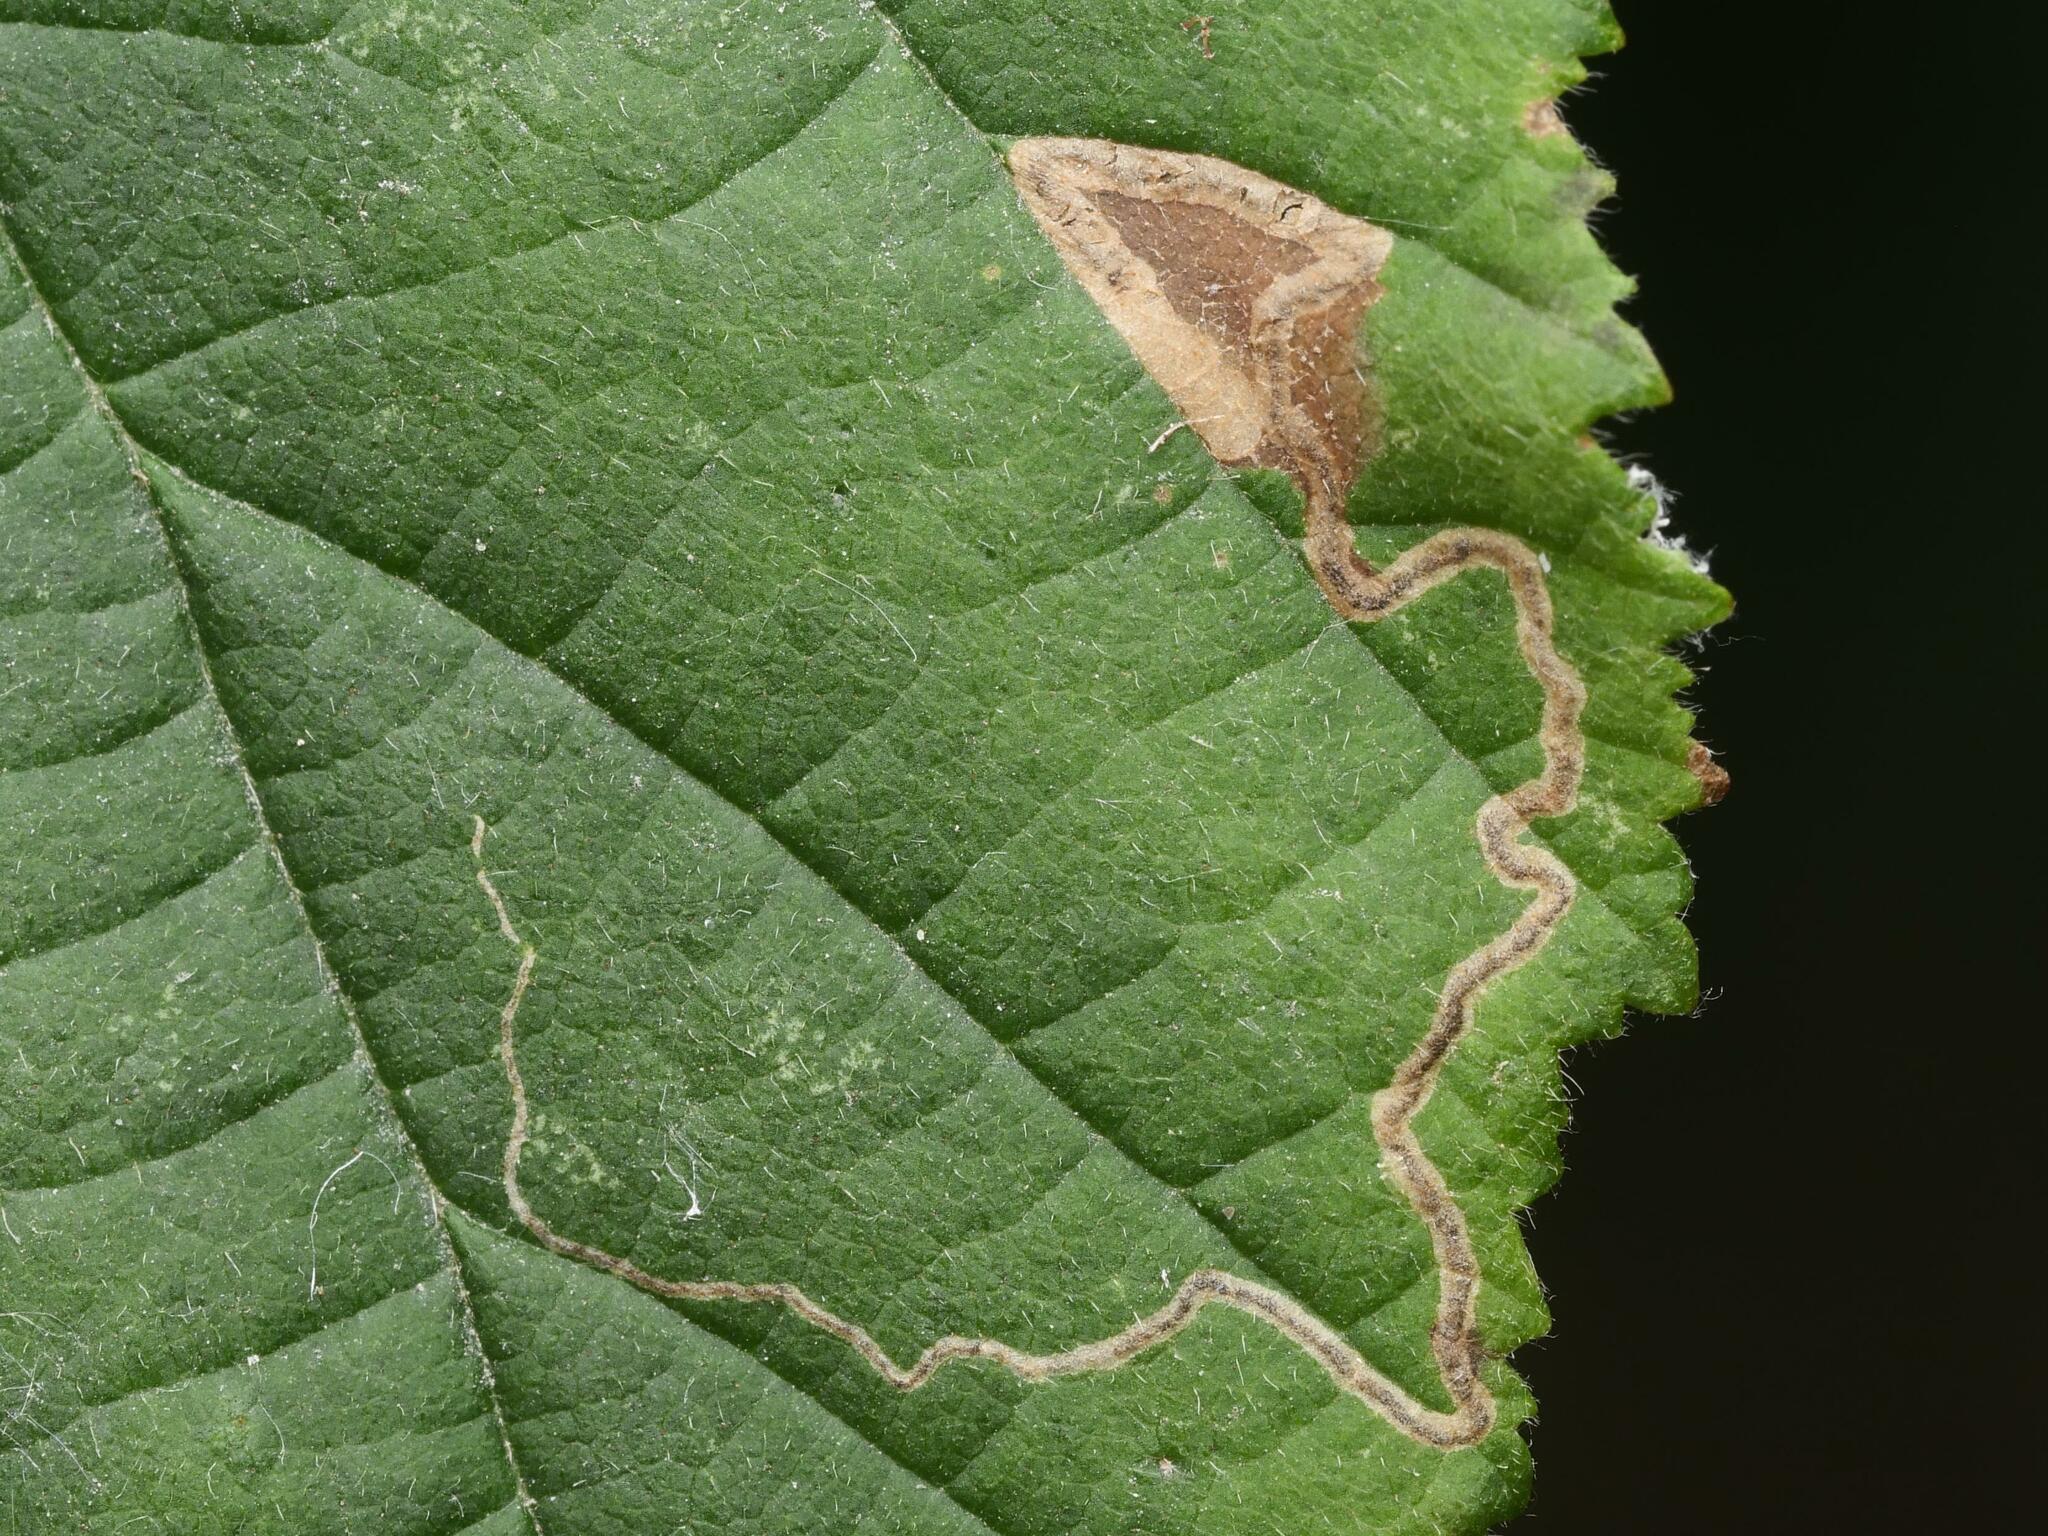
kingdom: Animalia
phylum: Arthropoda
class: Insecta
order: Lepidoptera
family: Nepticulidae
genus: Stigmella
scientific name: Stigmella floslactella
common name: Coarse hazel pigmy
